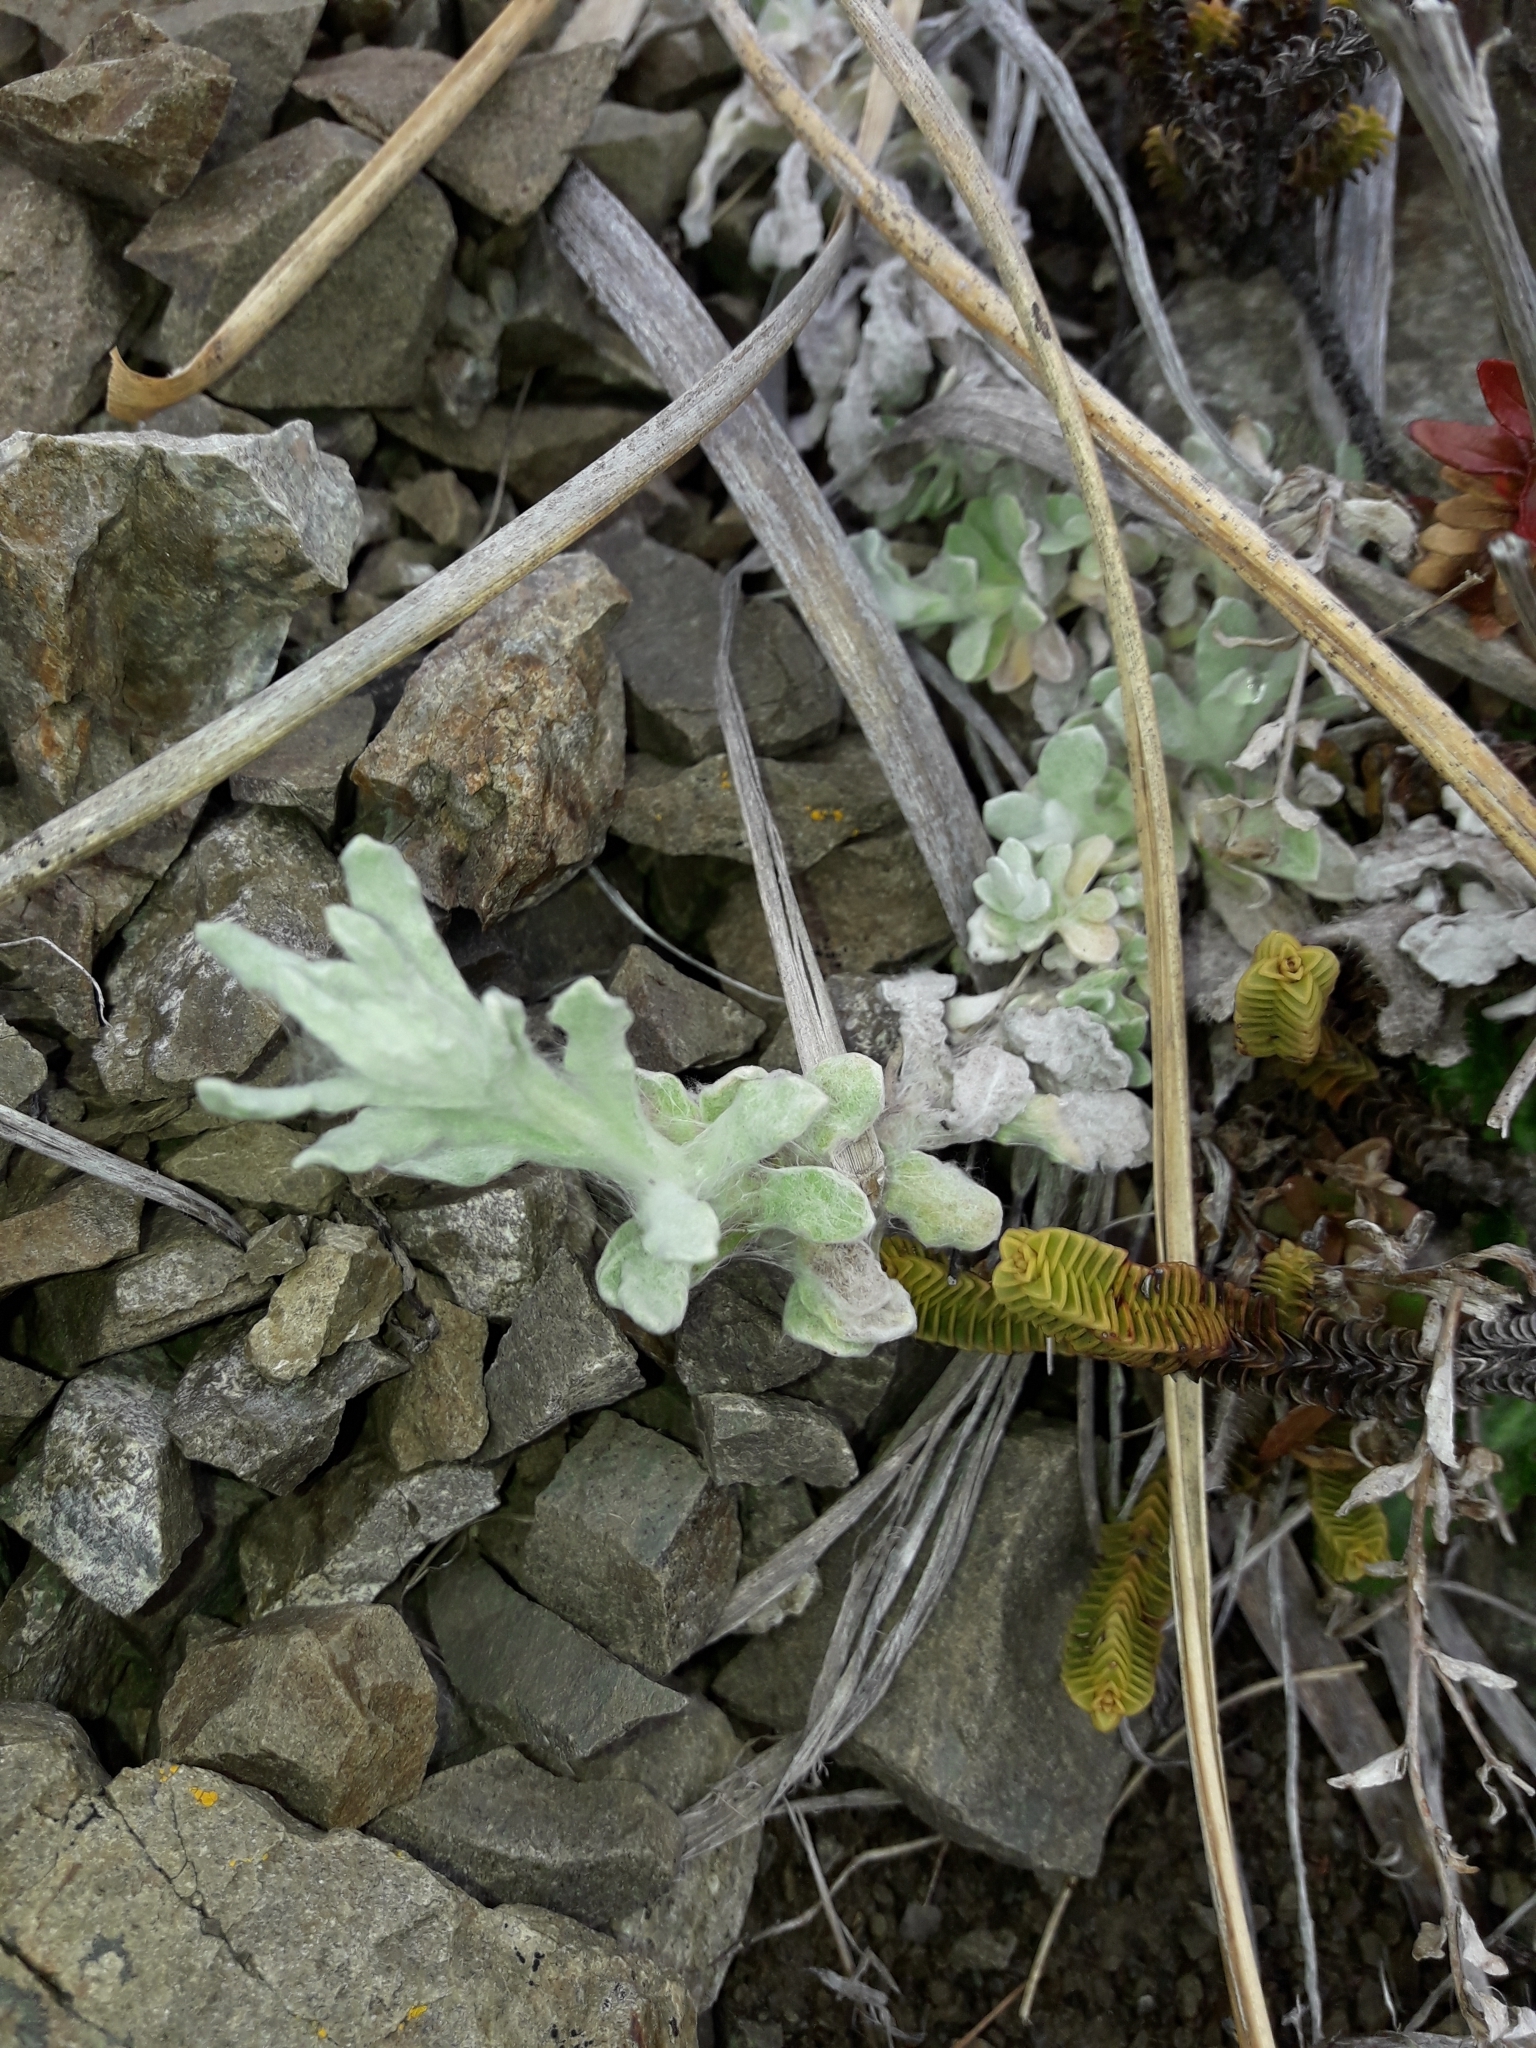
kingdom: Plantae
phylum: Tracheophyta
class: Magnoliopsida
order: Asterales
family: Asteraceae
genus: Helichrysum
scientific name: Helichrysum luteoalbum
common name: Daisy
